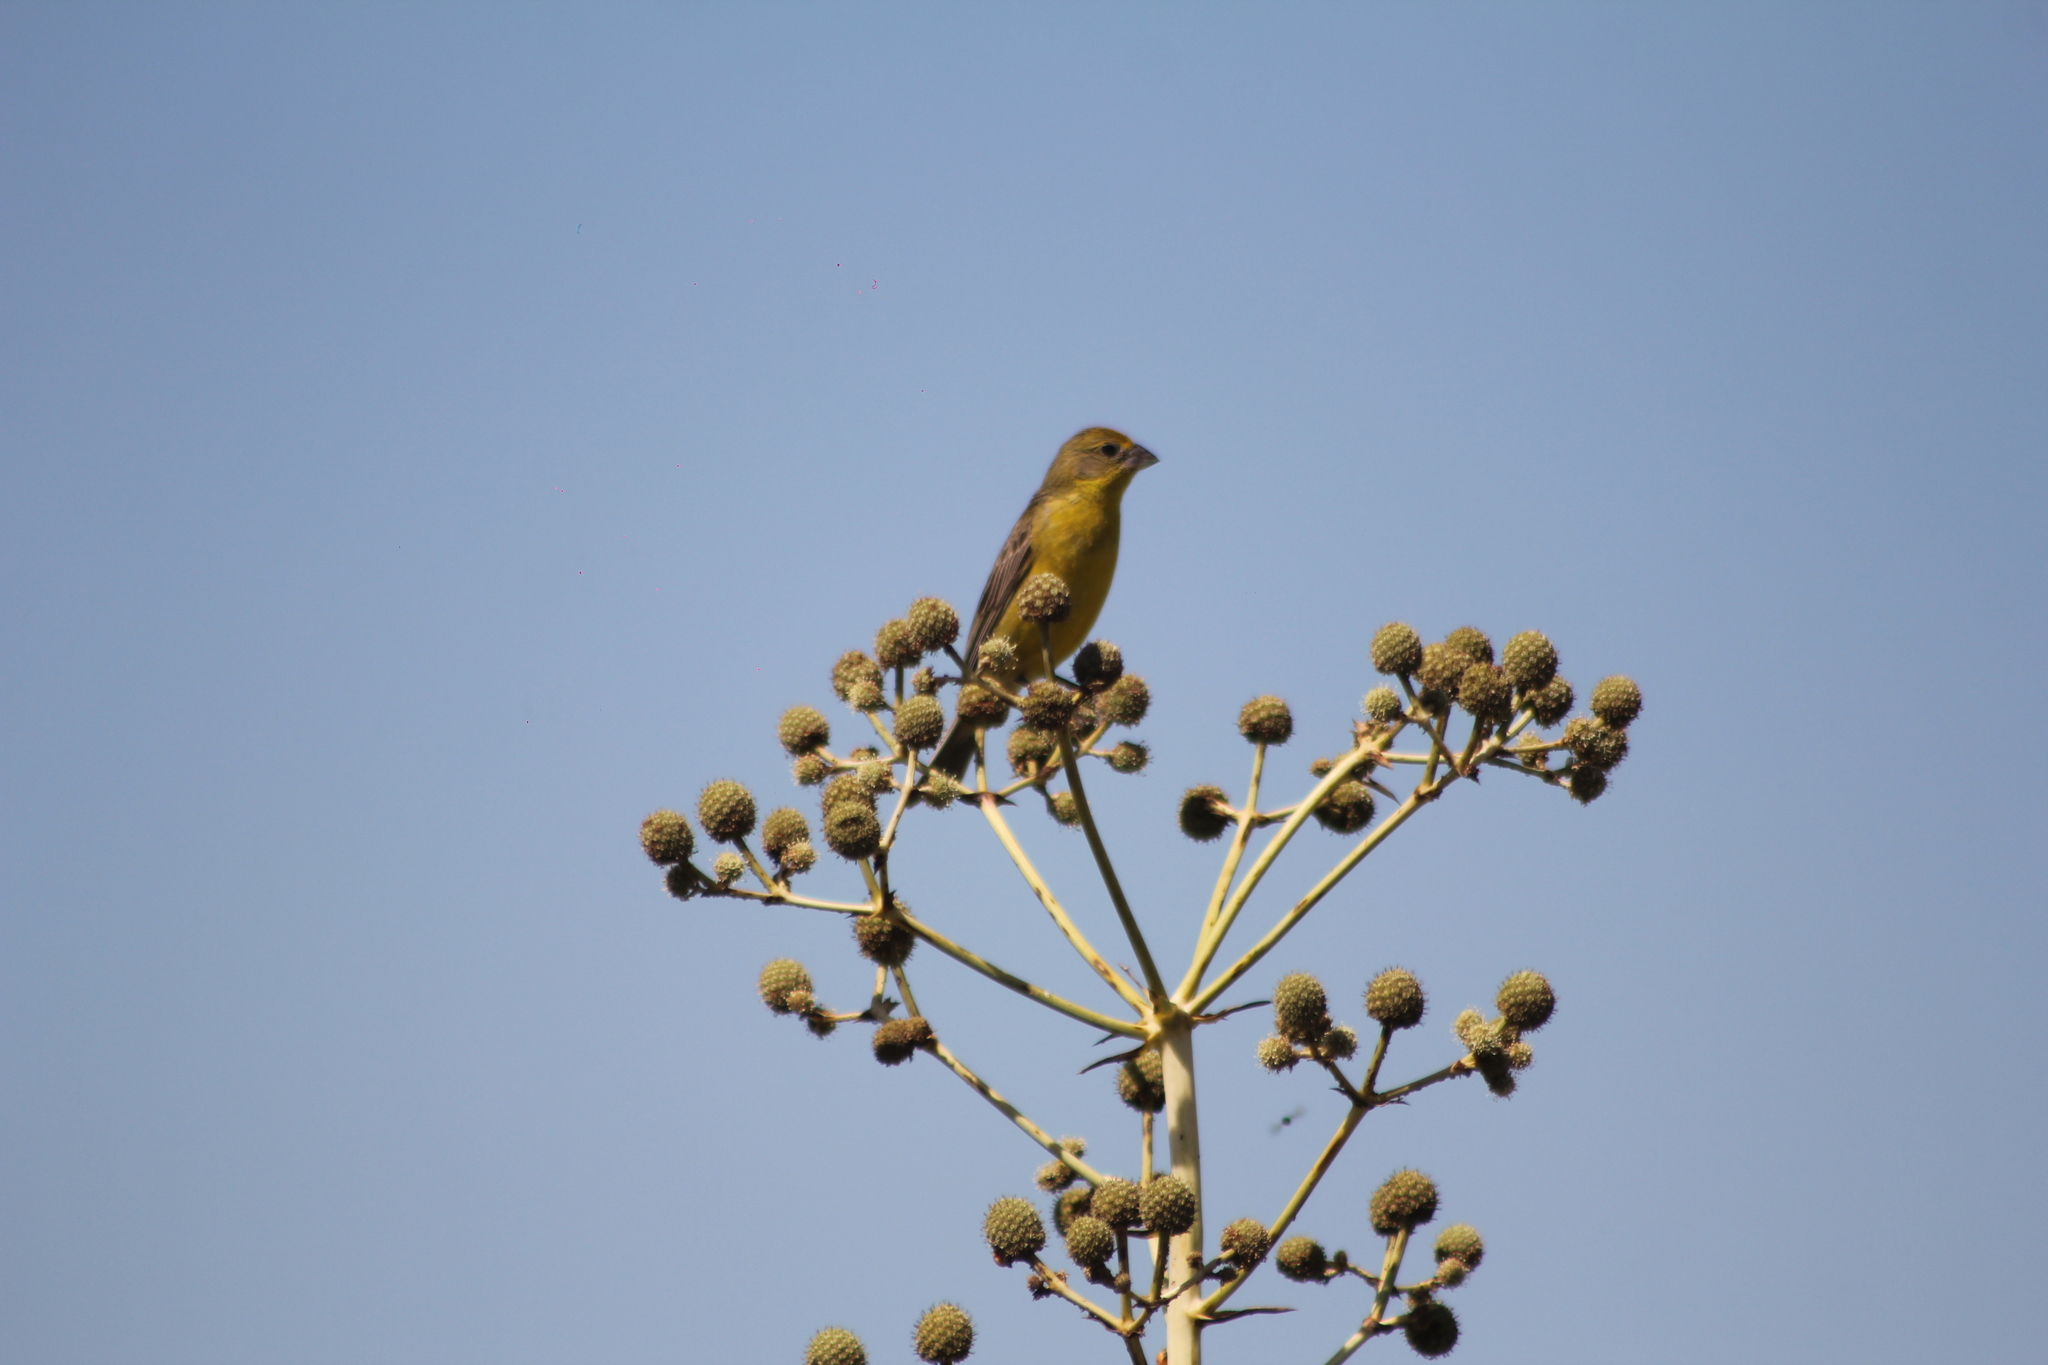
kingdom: Animalia
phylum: Chordata
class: Aves
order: Passeriformes
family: Thraupidae
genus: Sicalis
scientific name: Sicalis luteola
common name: Grassland yellow-finch
